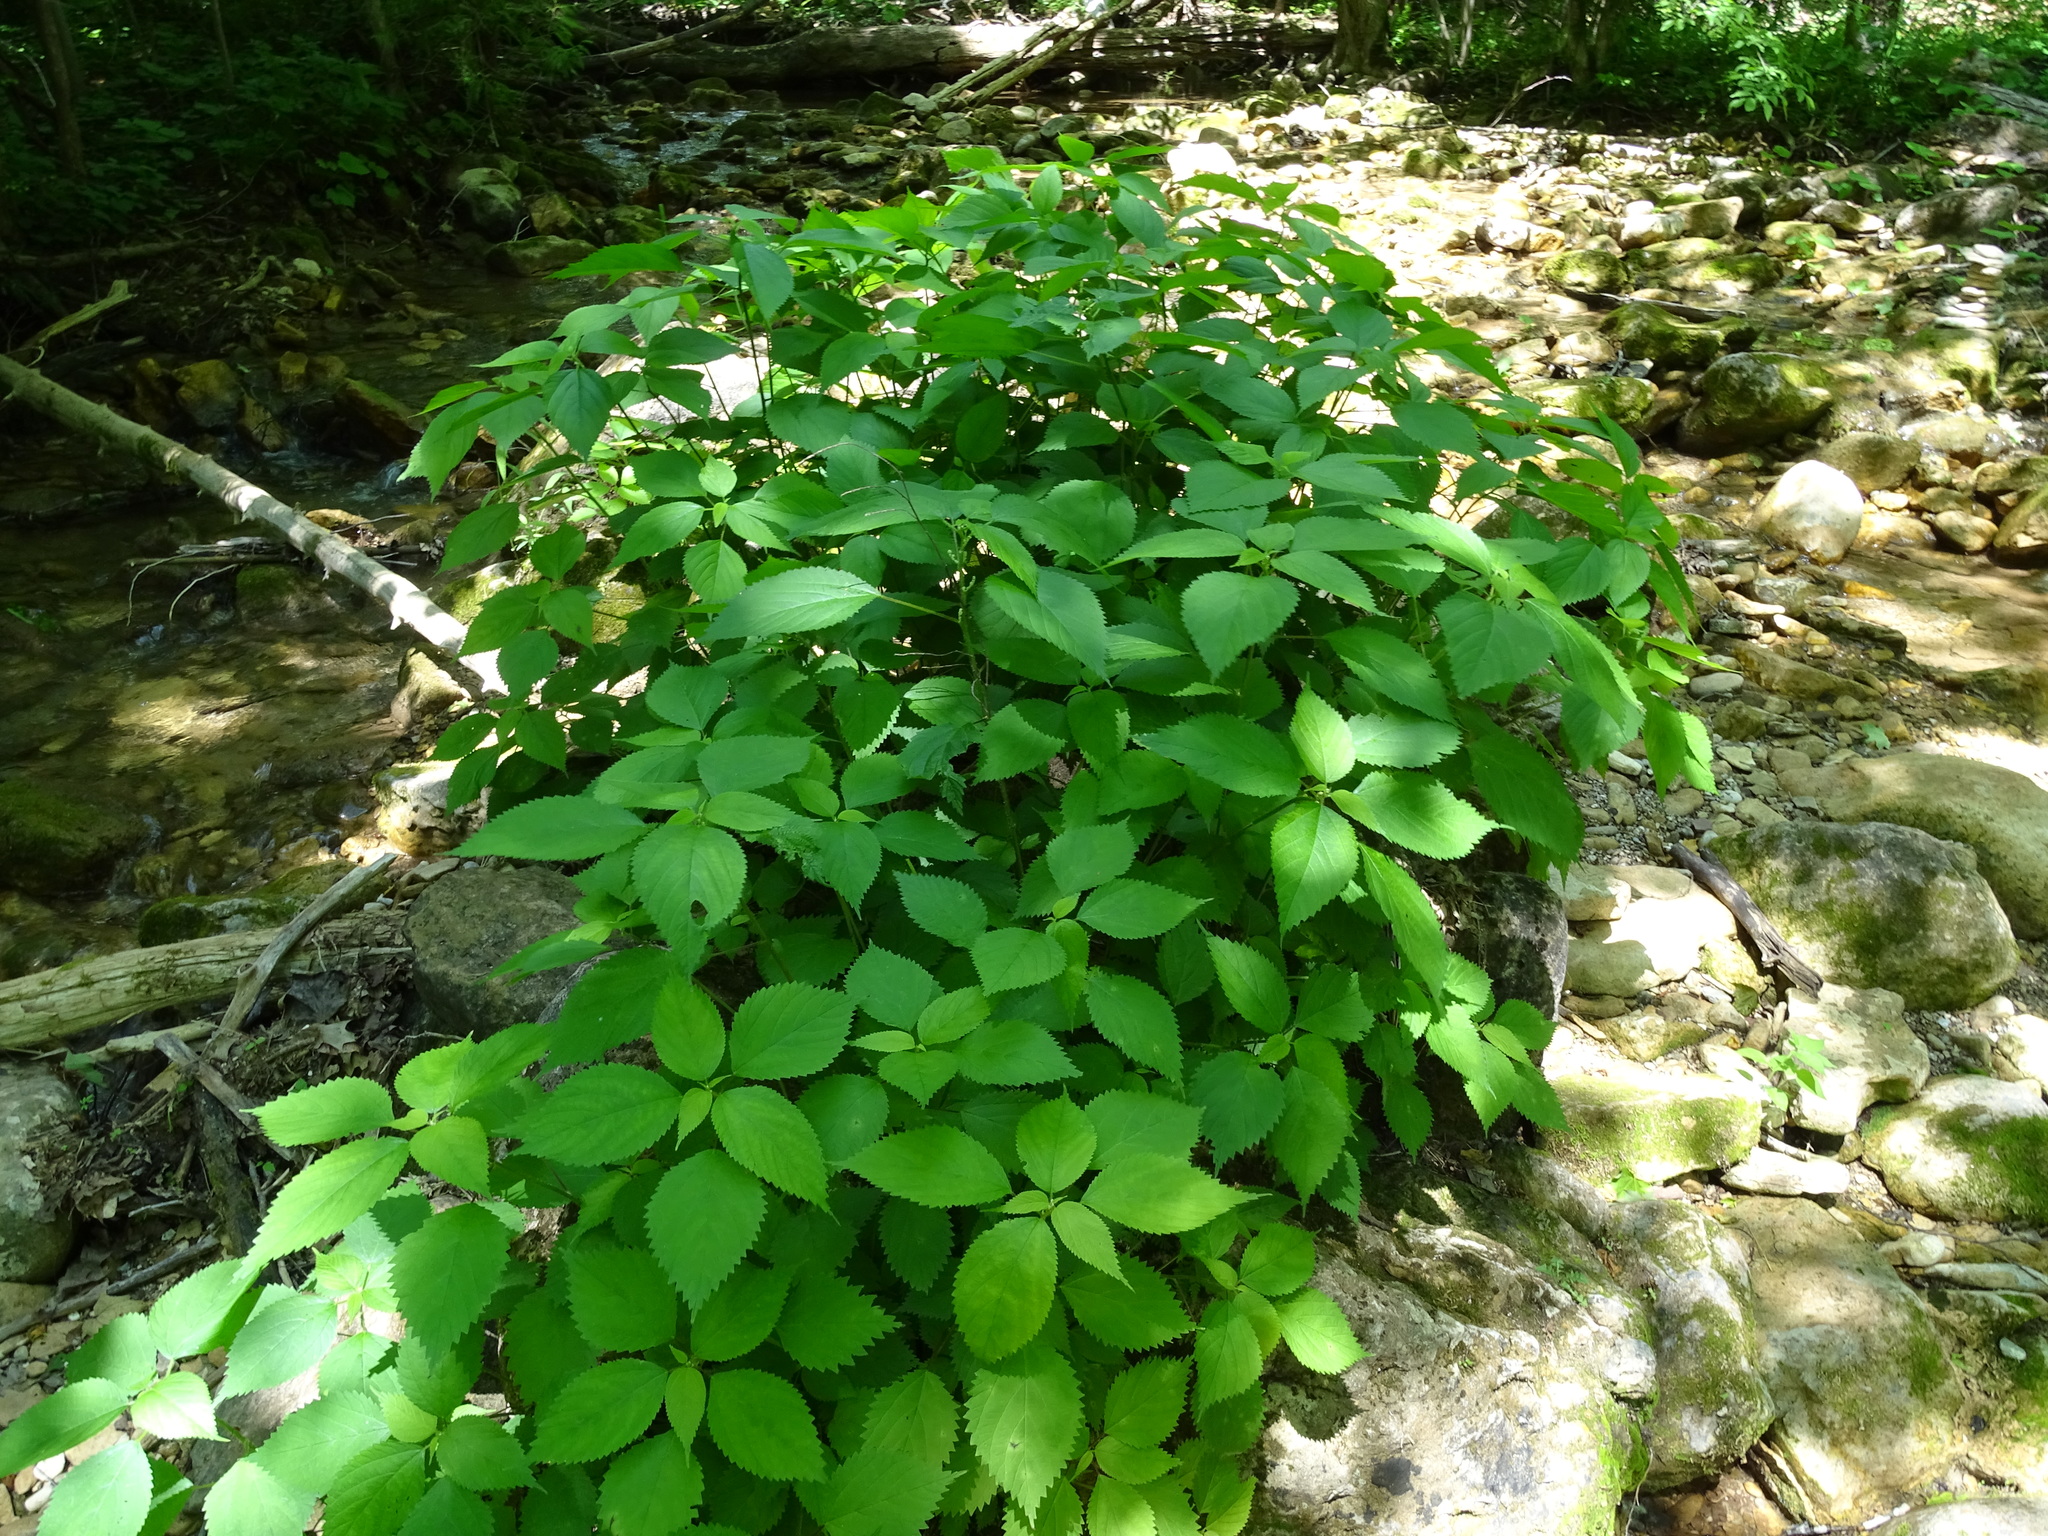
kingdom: Plantae
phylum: Tracheophyta
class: Magnoliopsida
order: Rosales
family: Urticaceae
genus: Laportea
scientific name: Laportea canadensis
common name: Canada nettle
